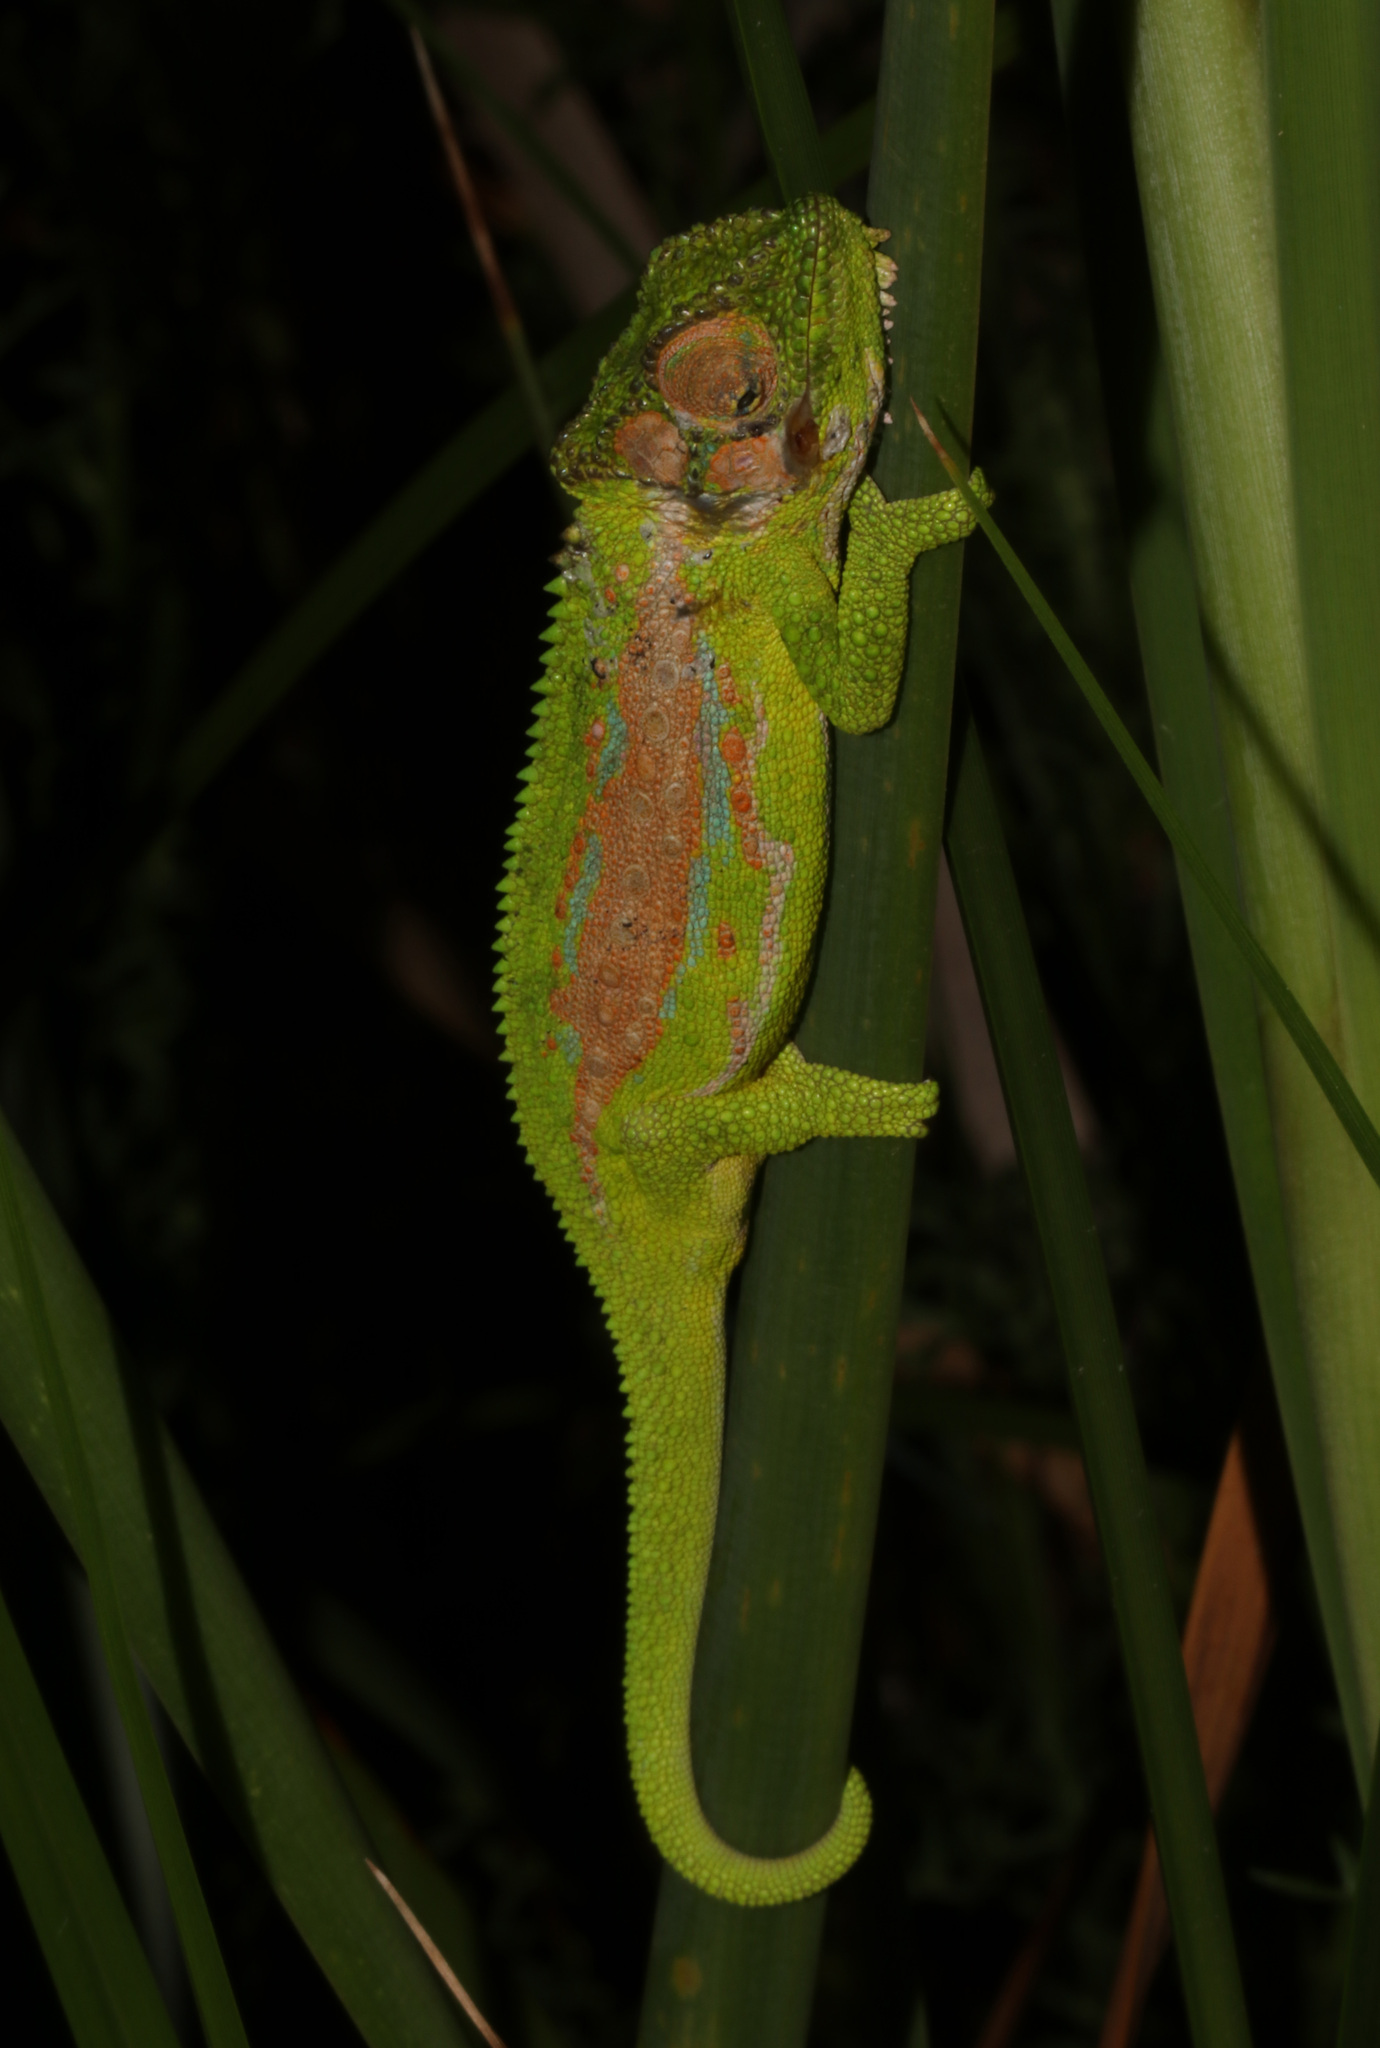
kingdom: Animalia
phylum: Chordata
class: Squamata
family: Chamaeleonidae
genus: Bradypodion
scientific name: Bradypodion pumilum
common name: Cape dwarf chameleon
